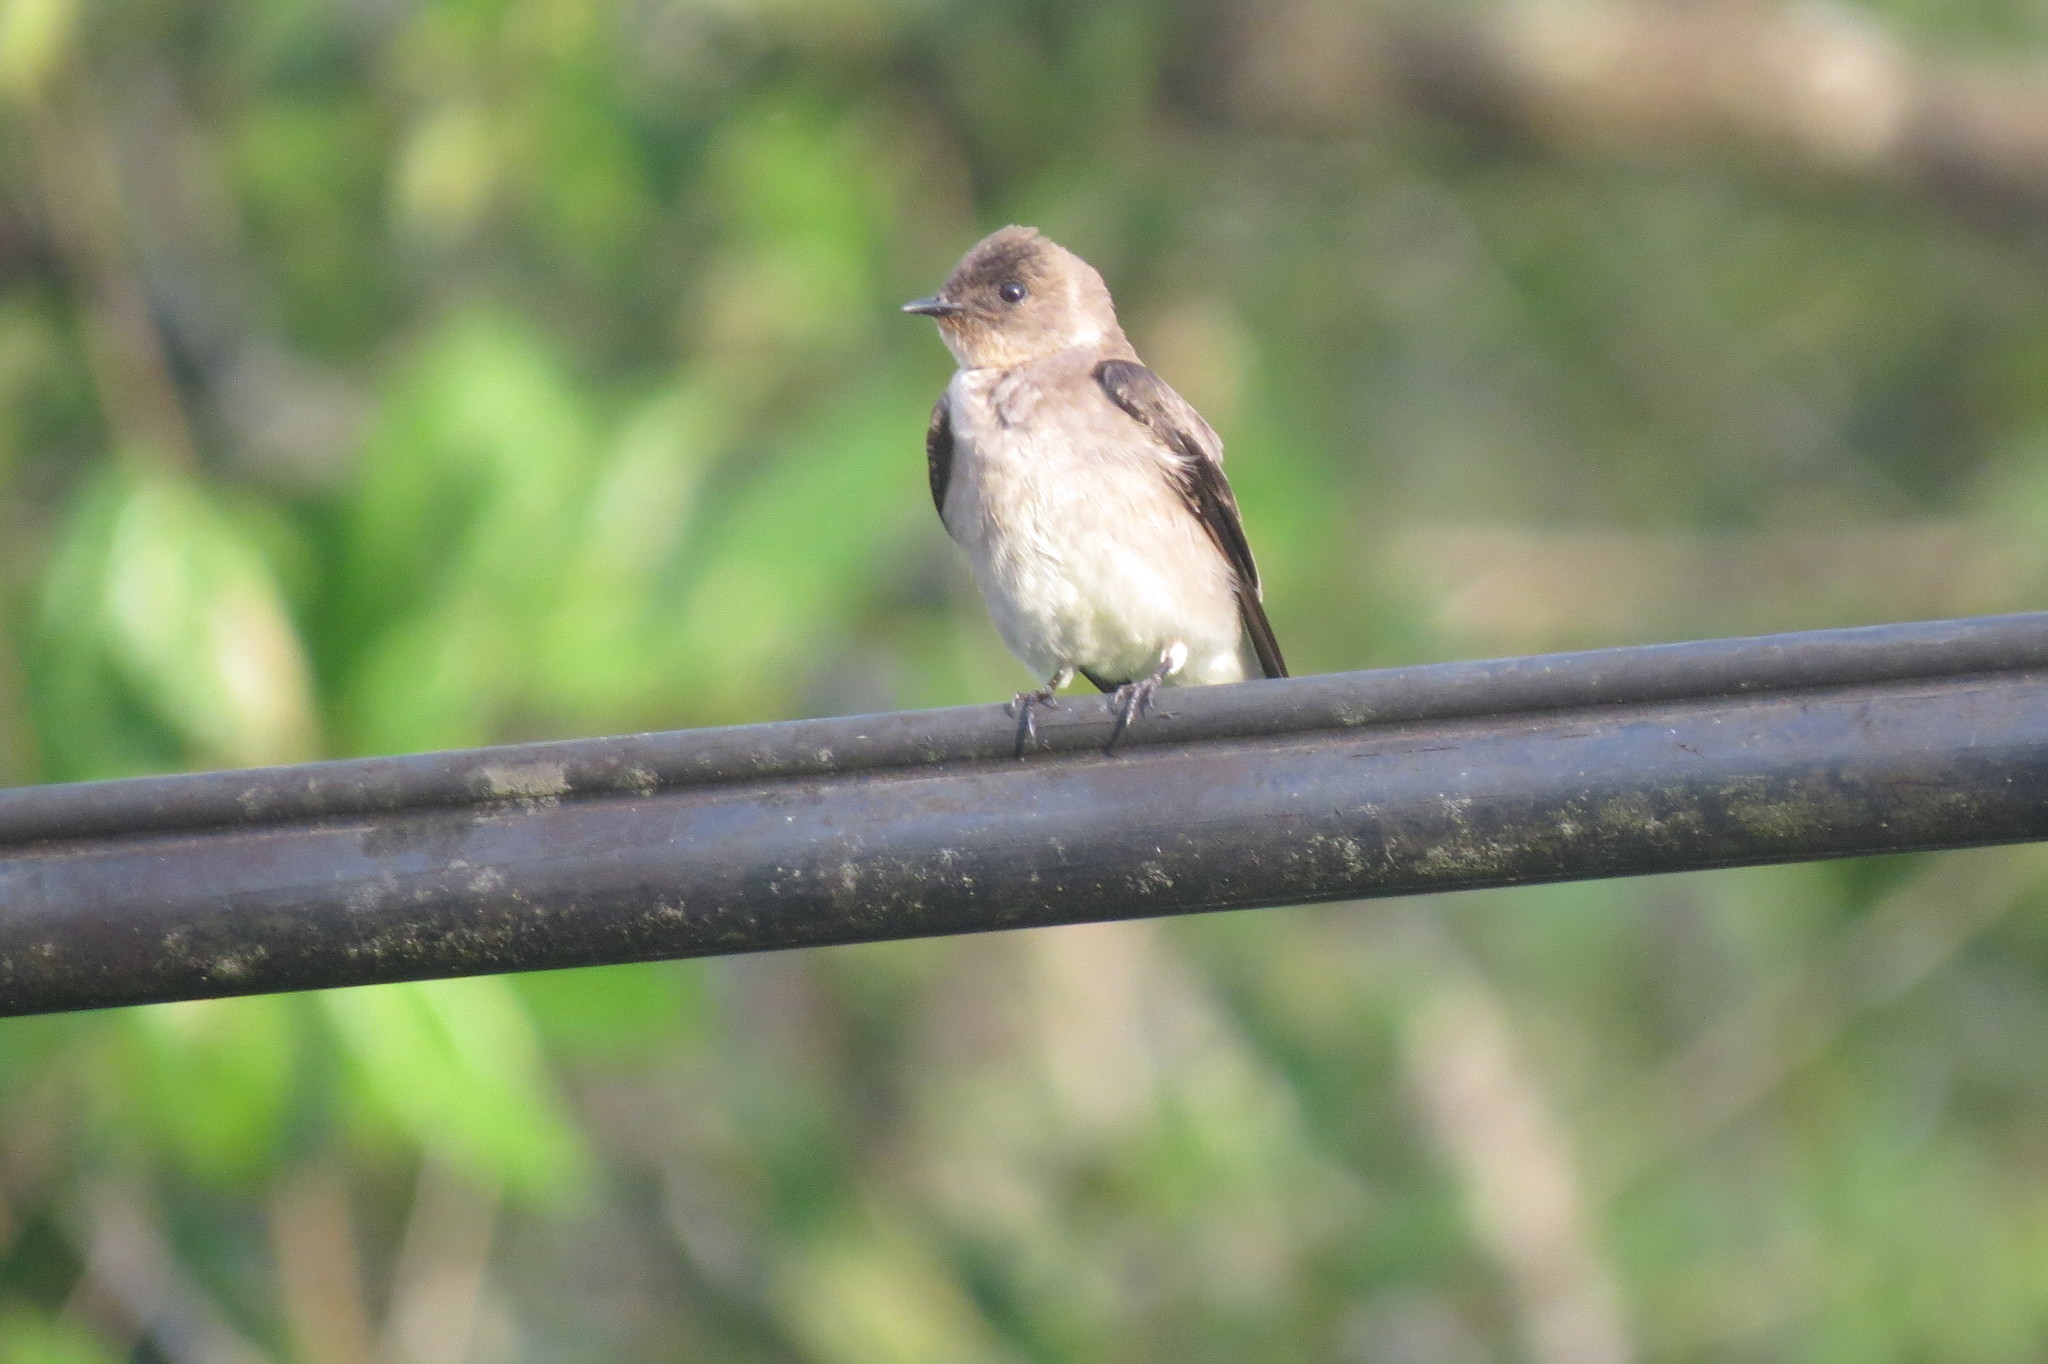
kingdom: Animalia
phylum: Chordata
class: Aves
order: Passeriformes
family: Hirundinidae
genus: Stelgidopteryx
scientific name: Stelgidopteryx ruficollis
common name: Southern rough-winged swallow
